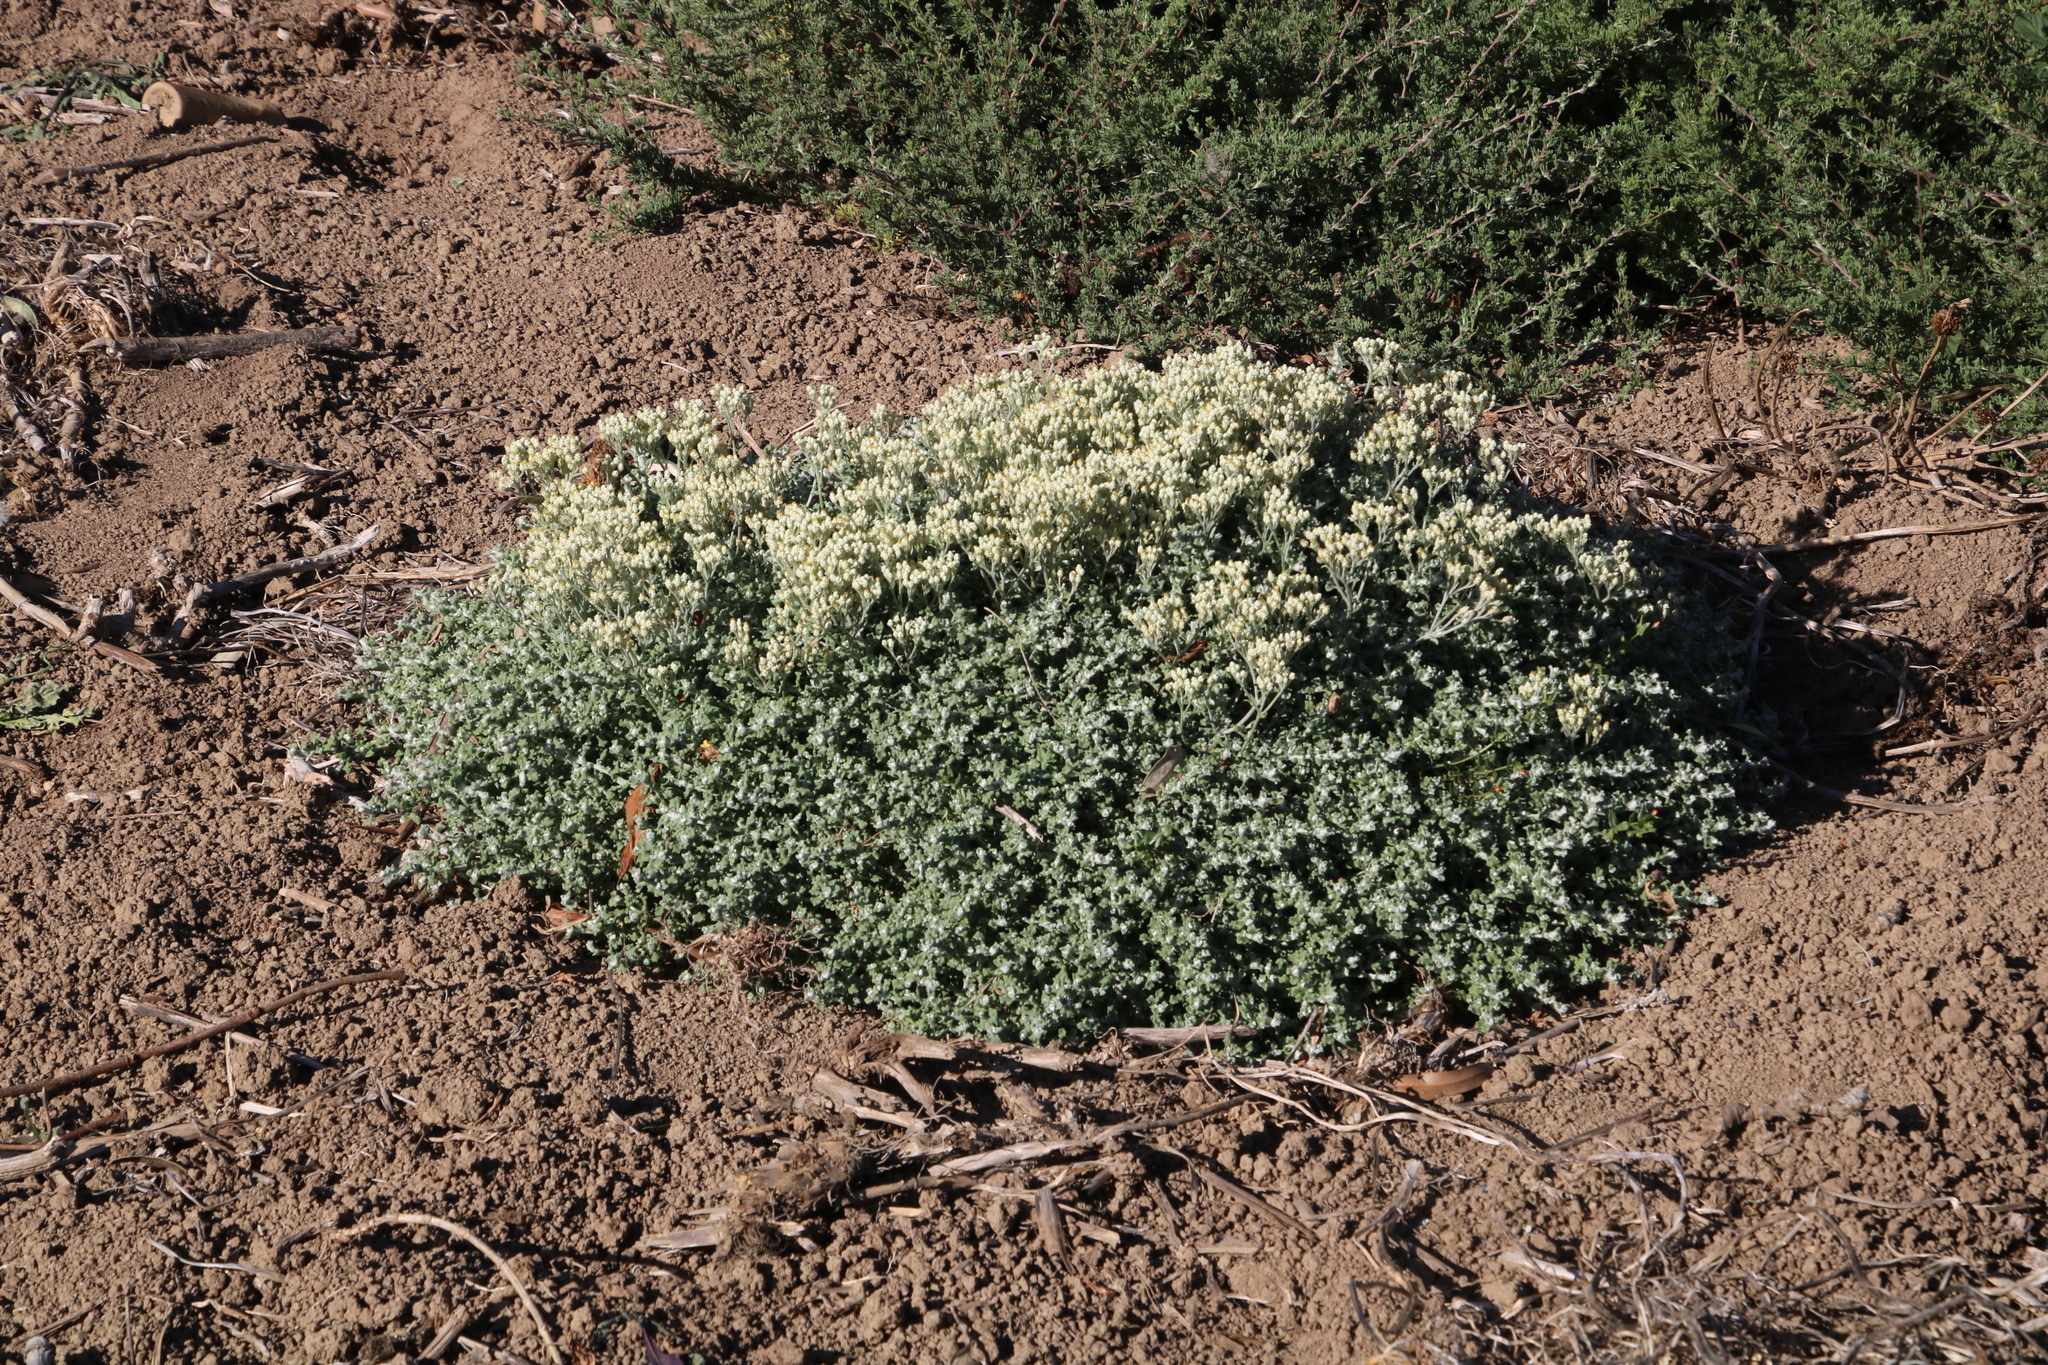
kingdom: Plantae
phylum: Tracheophyta
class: Magnoliopsida
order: Asterales
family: Asteraceae
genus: Helichrysum
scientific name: Helichrysum patulum
